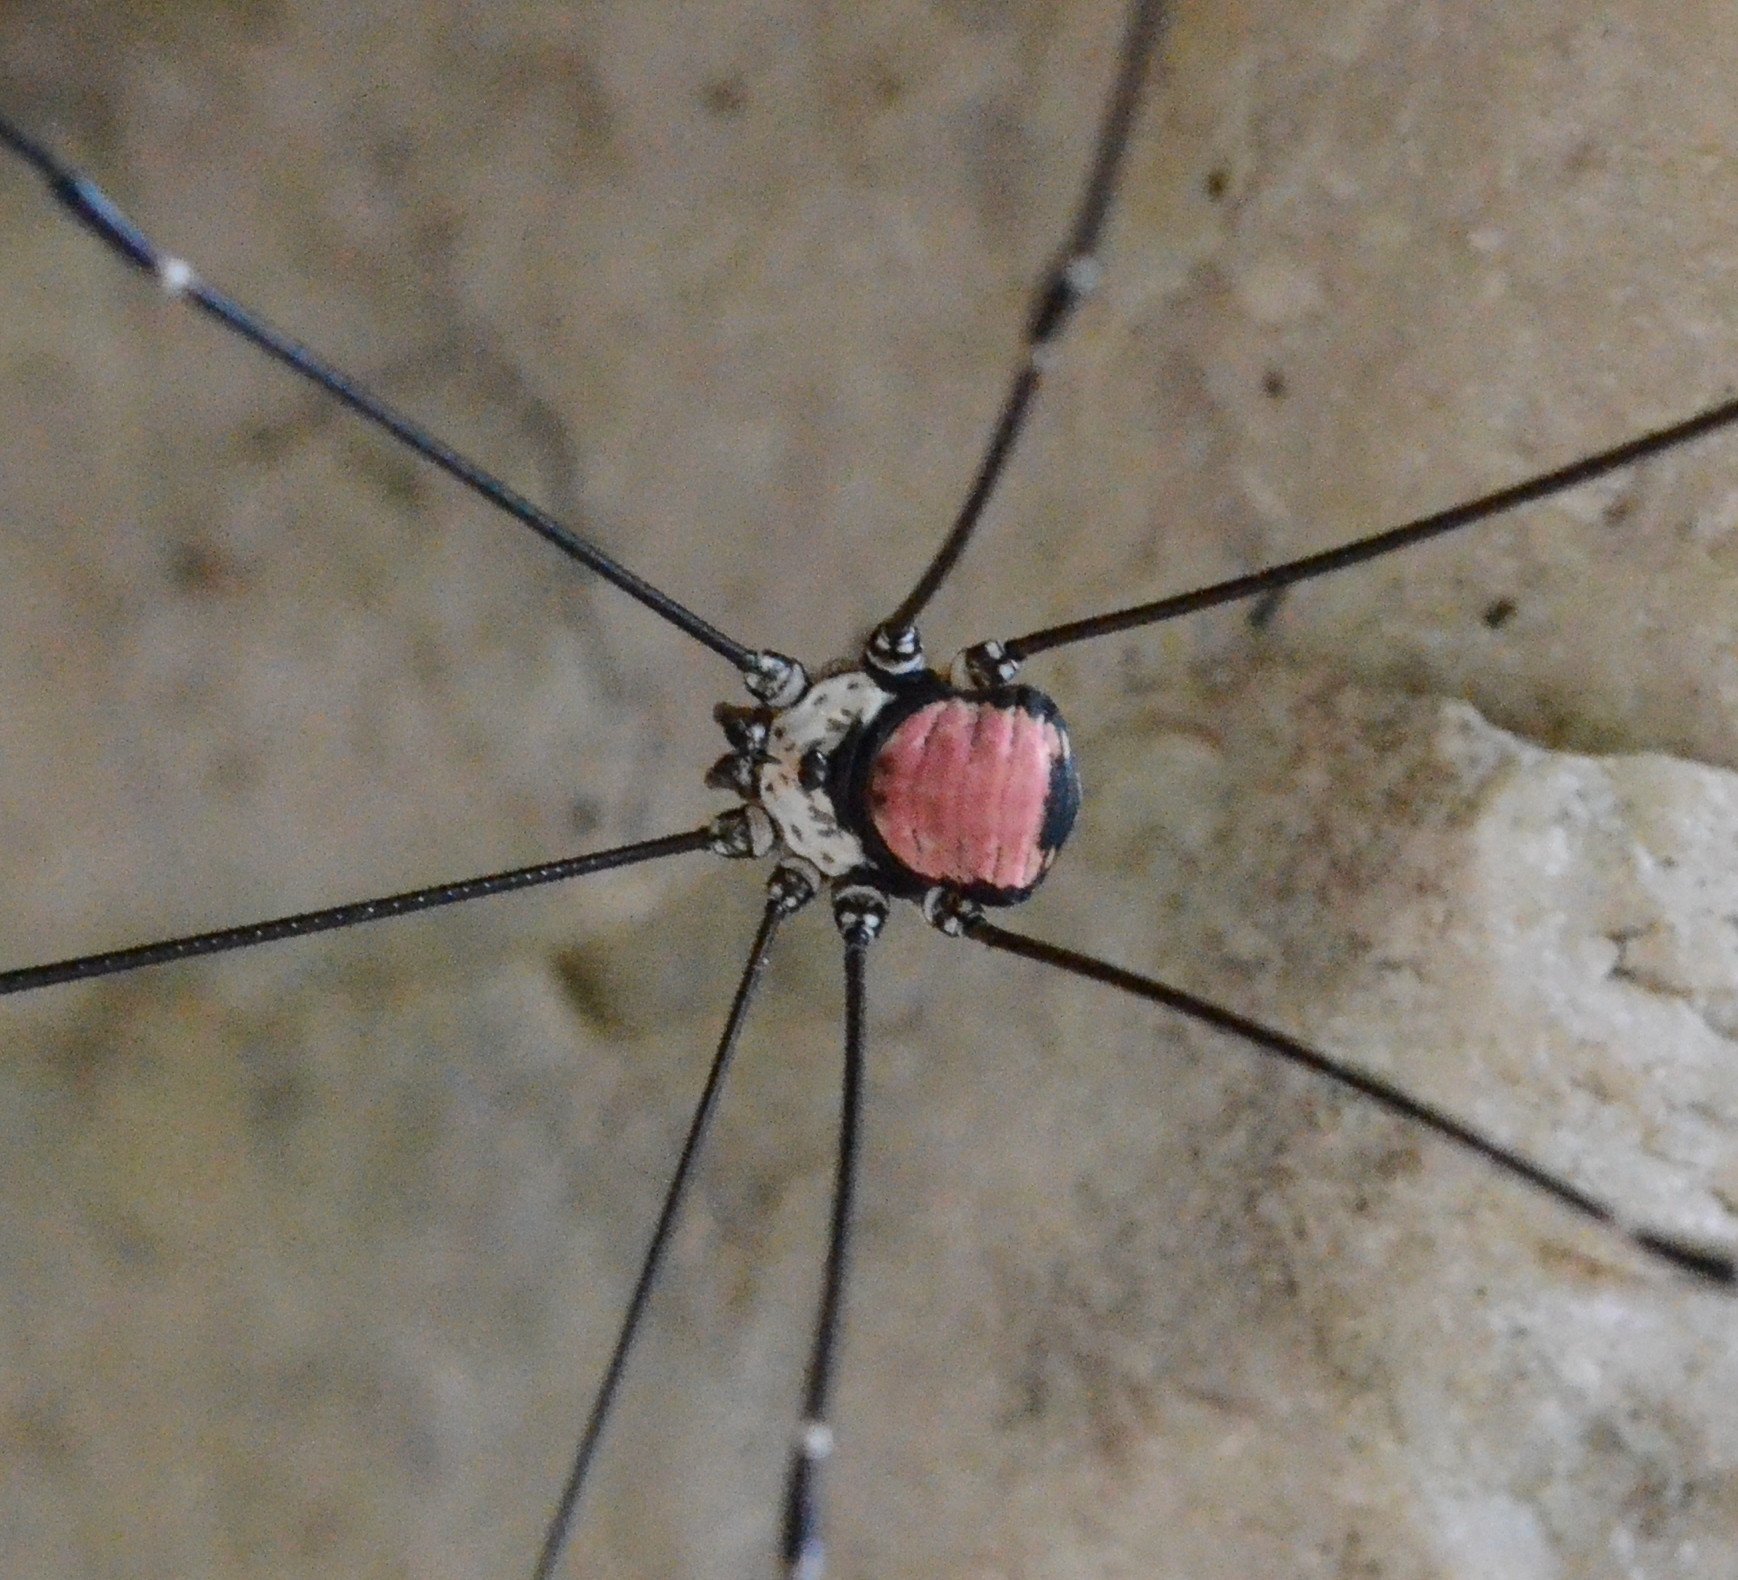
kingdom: Animalia
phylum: Arthropoda
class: Arachnida
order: Opiliones
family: Sclerosomatidae
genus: Leiobunum
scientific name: Leiobunum roseum
